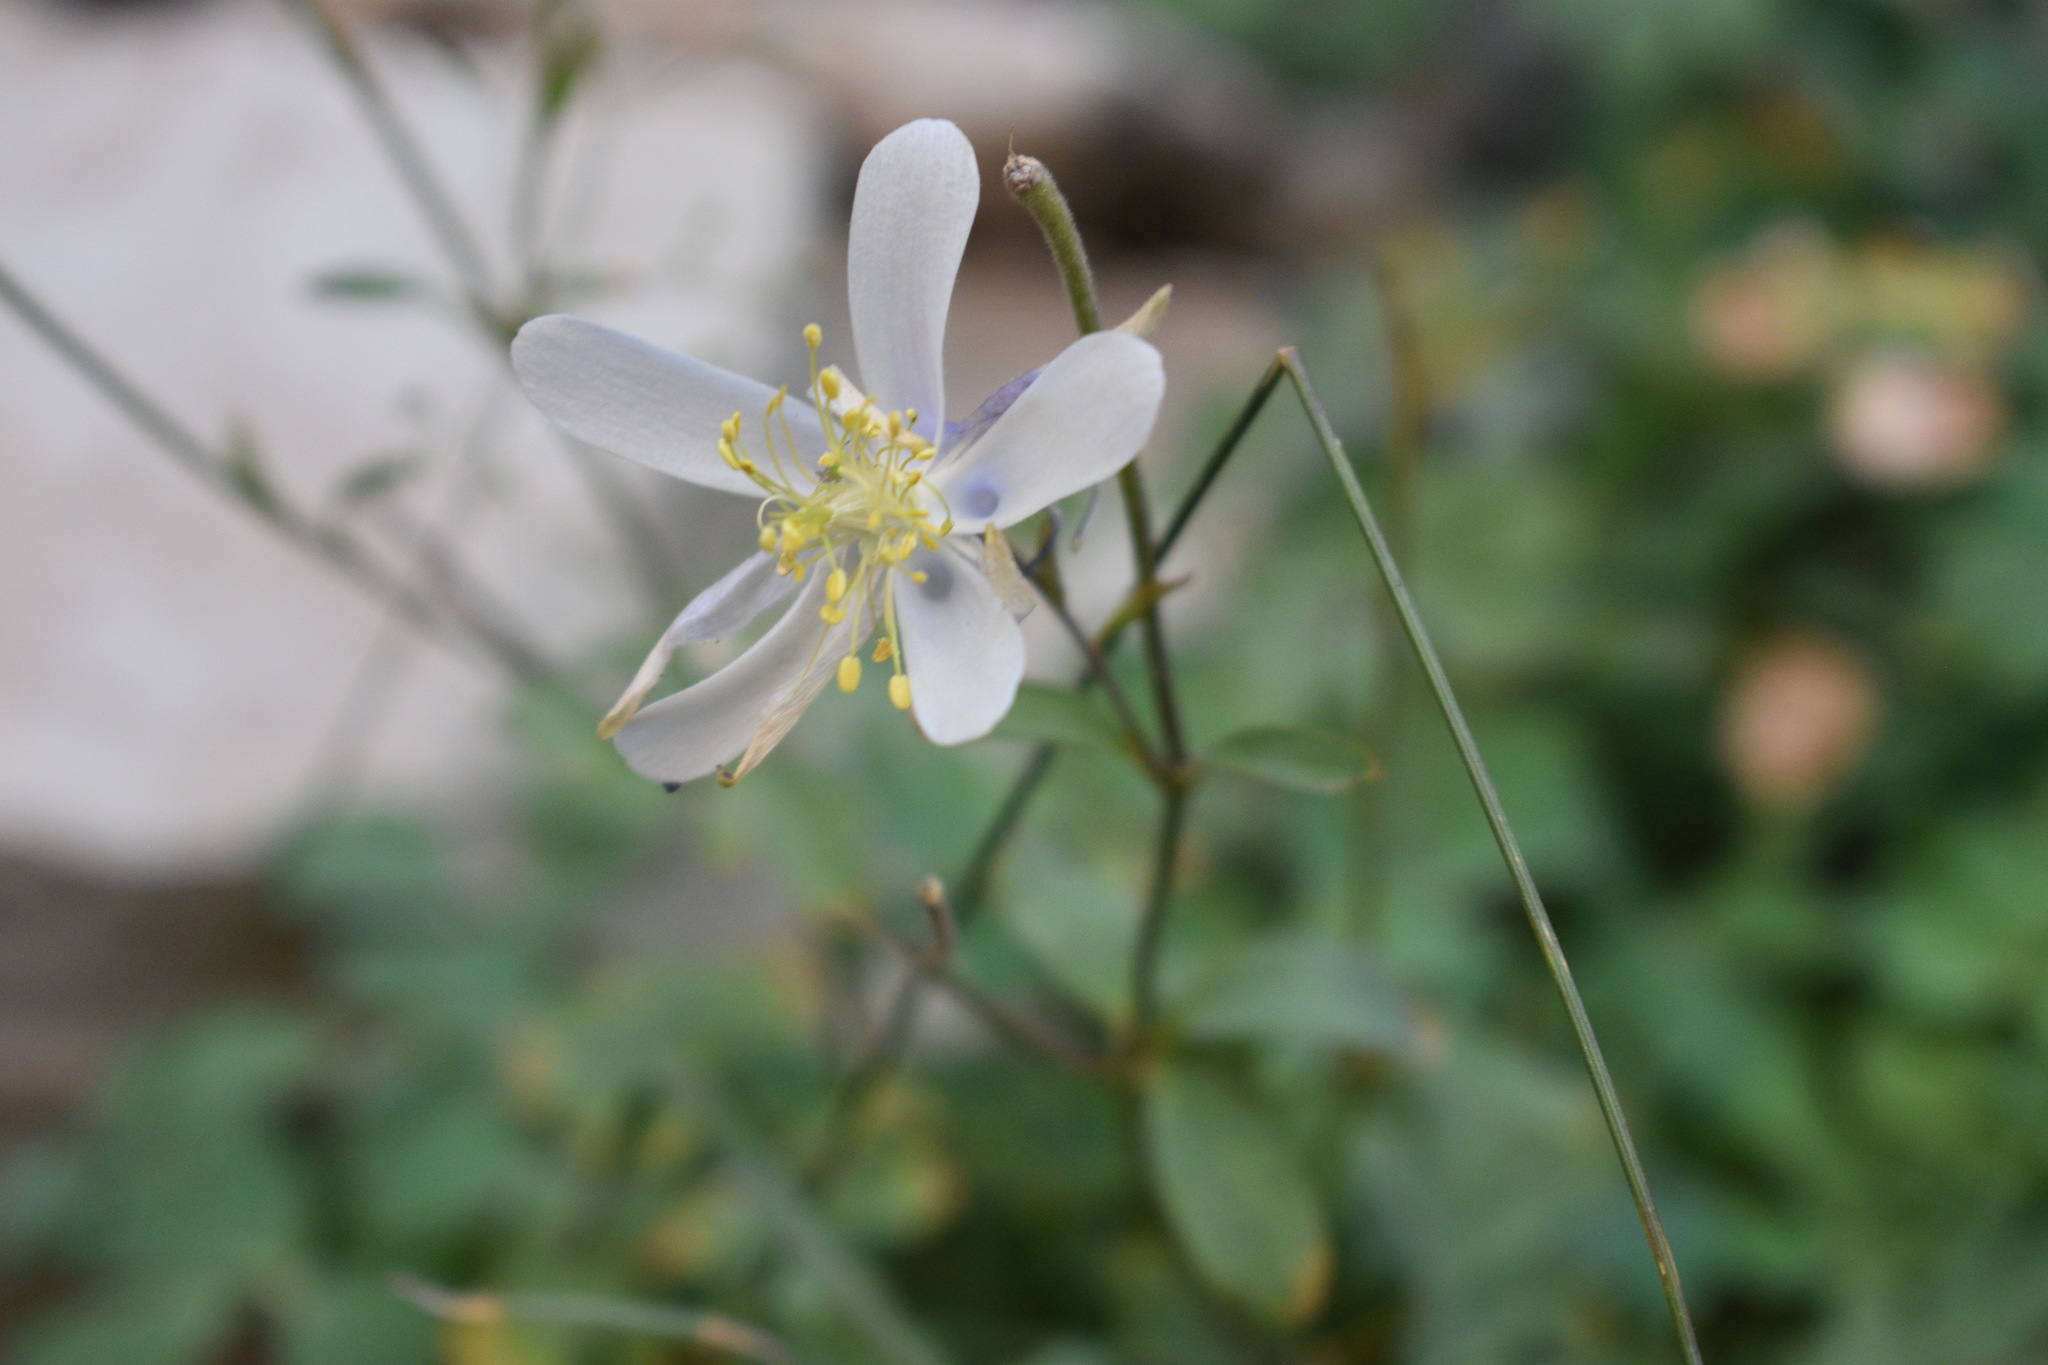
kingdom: Plantae
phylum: Tracheophyta
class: Magnoliopsida
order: Ranunculales
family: Ranunculaceae
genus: Aquilegia
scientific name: Aquilegia coerulea
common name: Rocky mountain columbine
